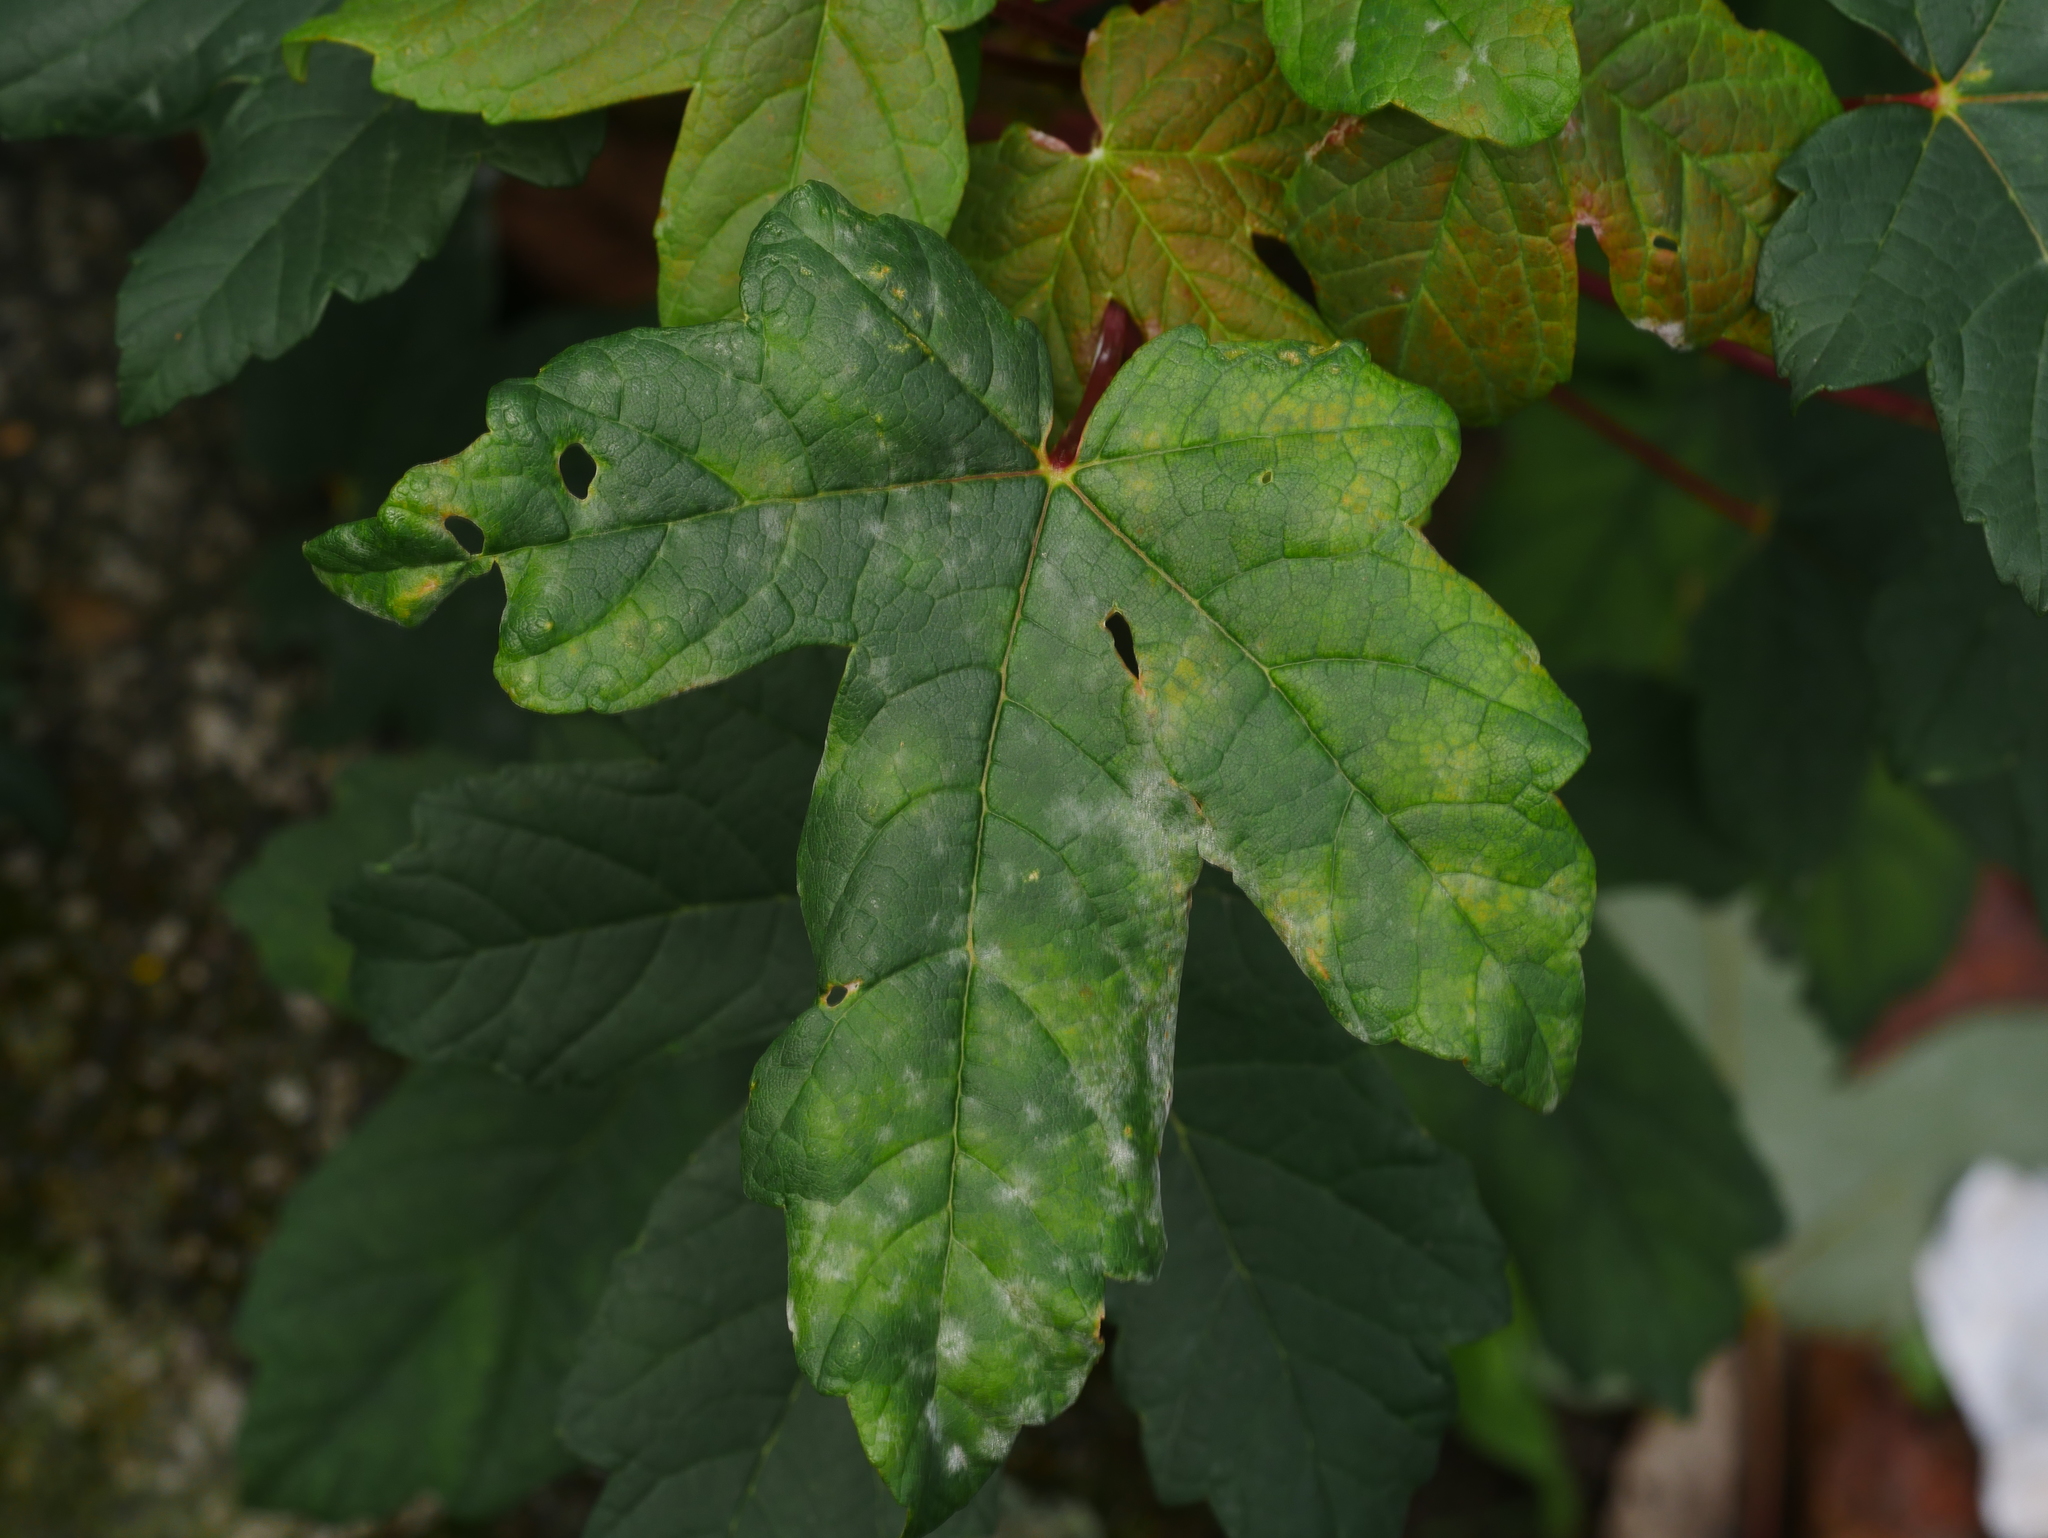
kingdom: Plantae
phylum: Tracheophyta
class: Magnoliopsida
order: Sapindales
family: Sapindaceae
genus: Acer
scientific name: Acer pseudoplatanus
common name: Sycamore
